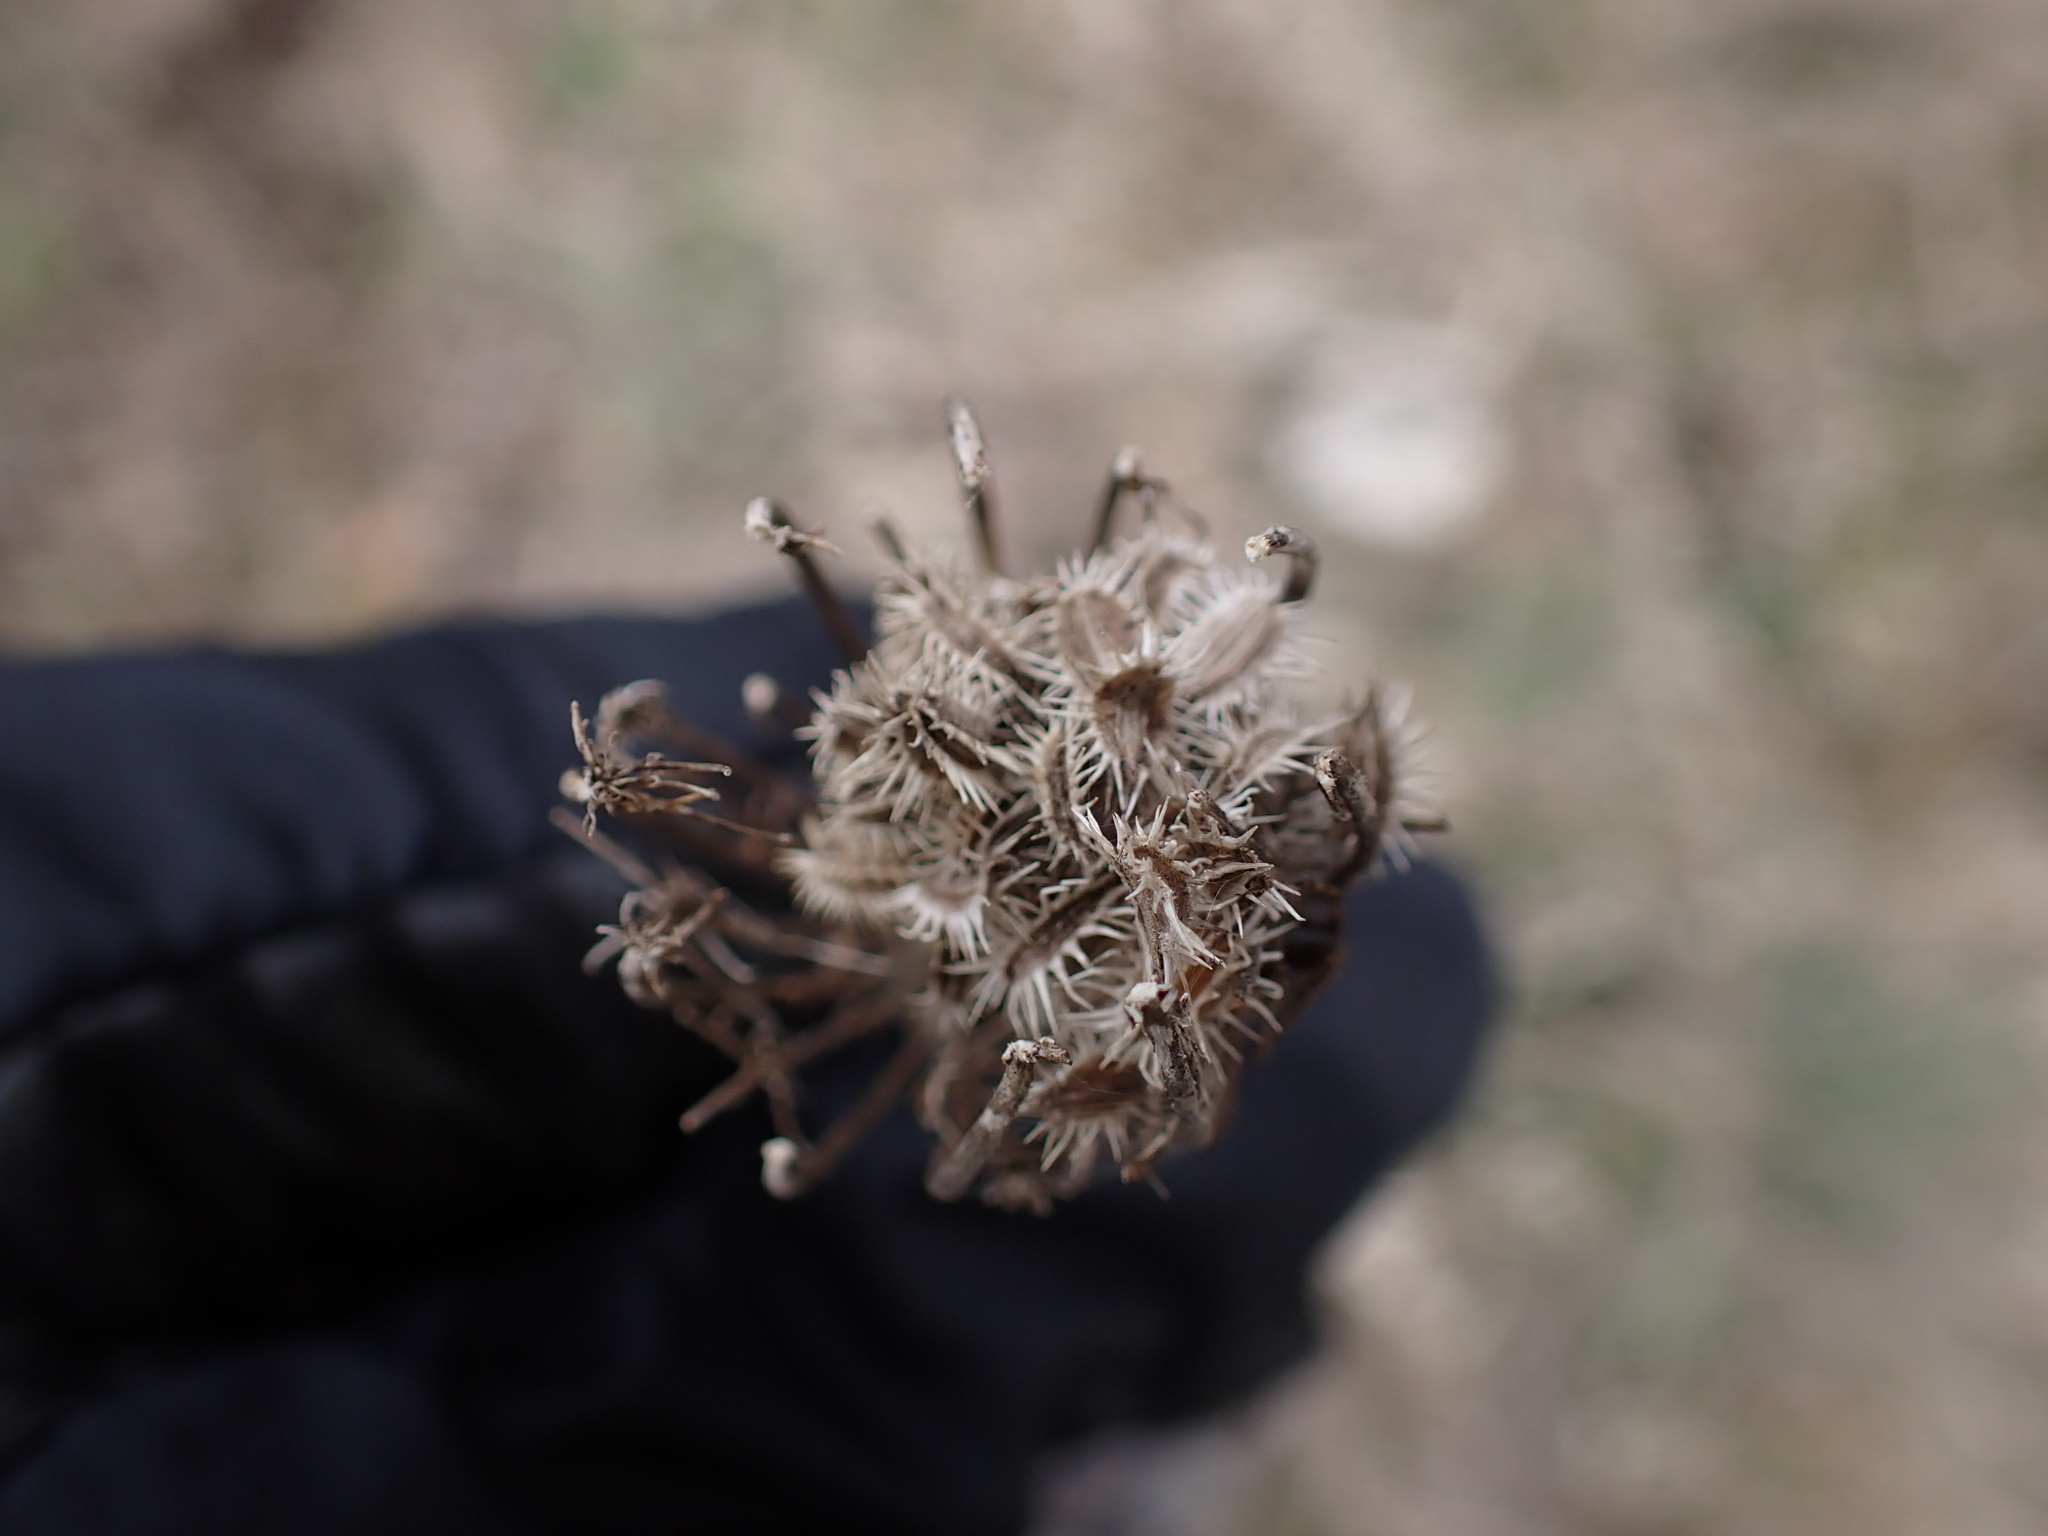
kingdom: Plantae
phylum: Tracheophyta
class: Magnoliopsida
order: Apiales
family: Apiaceae
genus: Daucus
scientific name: Daucus carota
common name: Wild carrot
